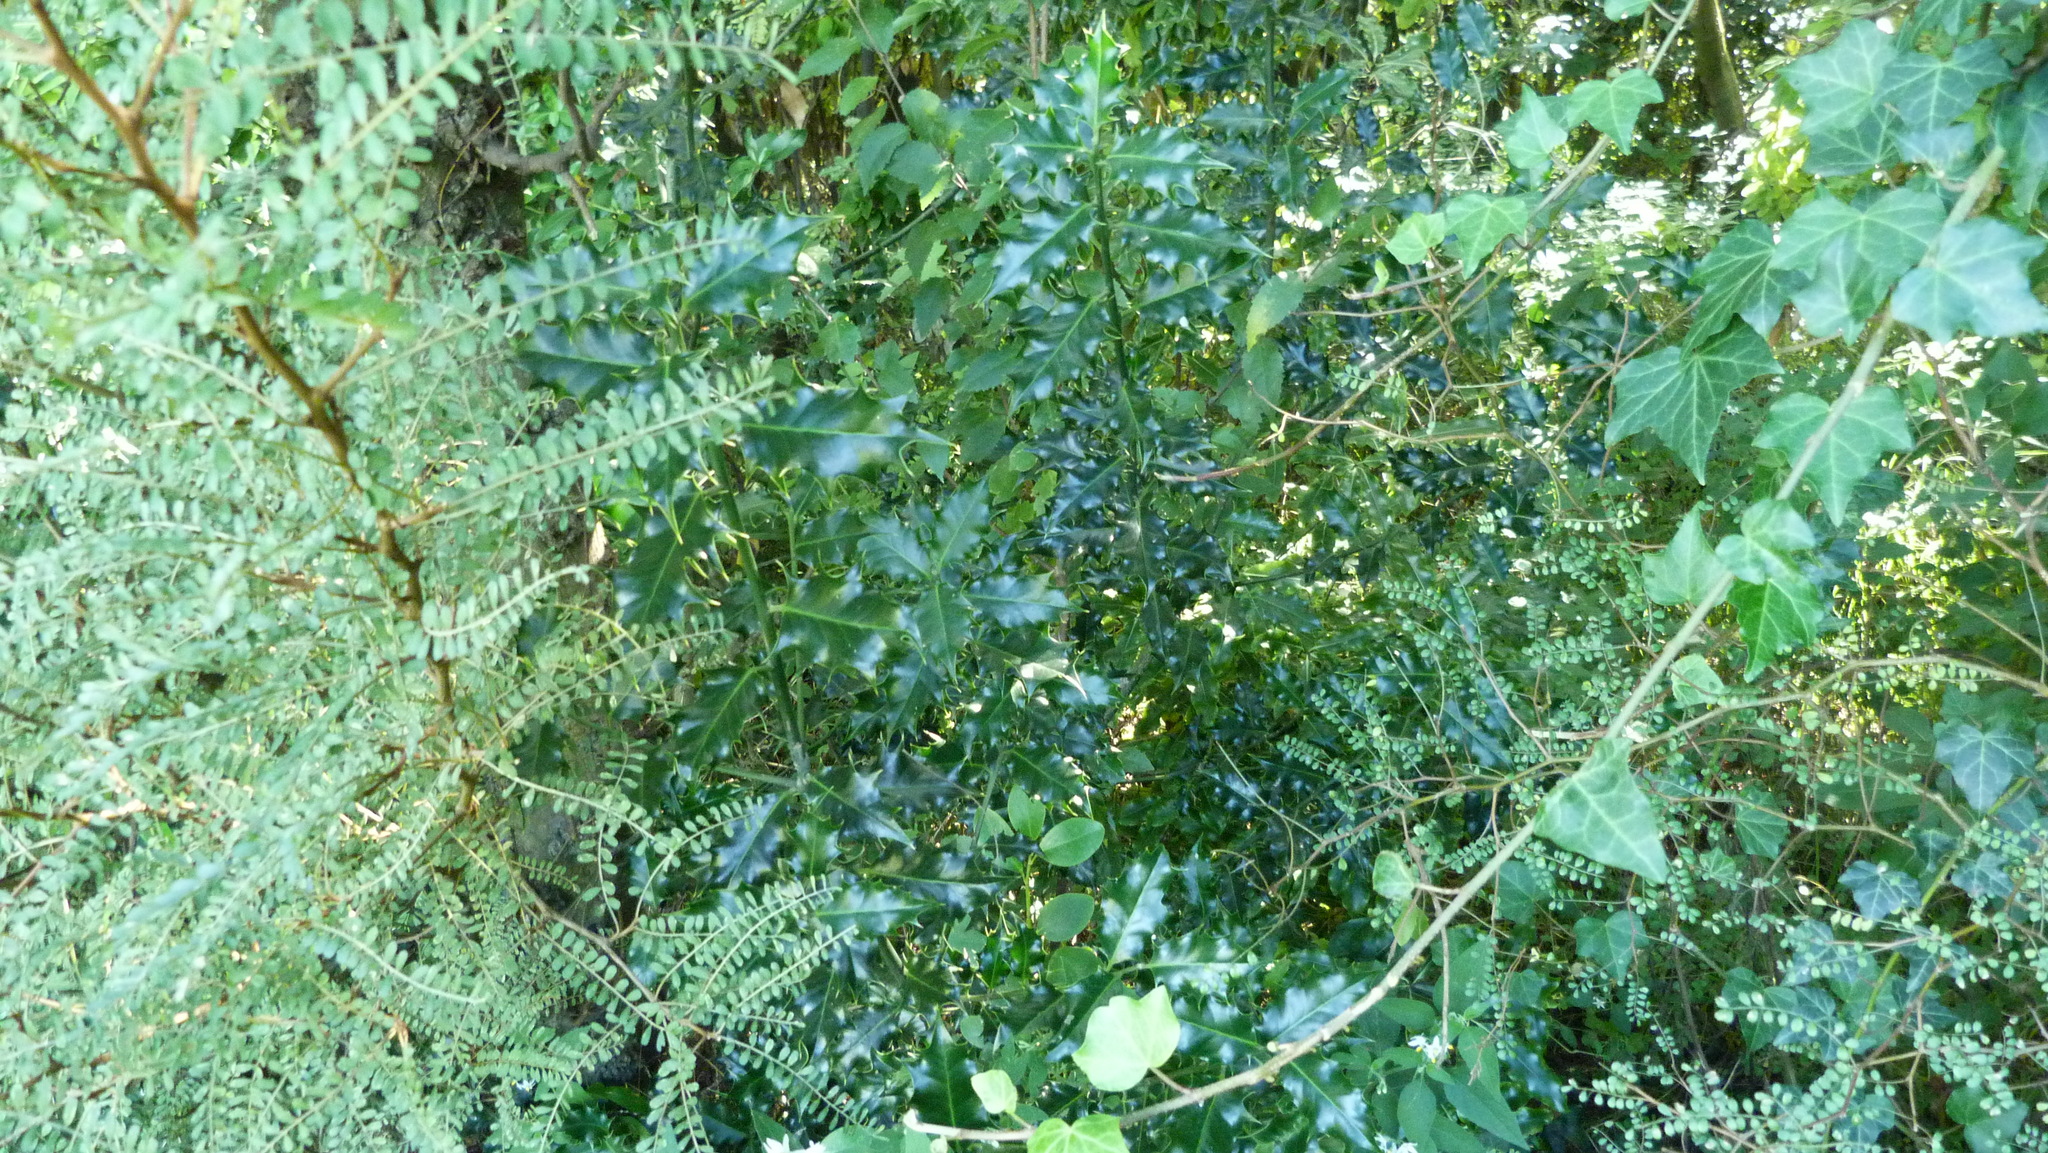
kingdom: Plantae
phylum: Tracheophyta
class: Magnoliopsida
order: Aquifoliales
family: Aquifoliaceae
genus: Ilex
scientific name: Ilex aquifolium
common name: English holly
